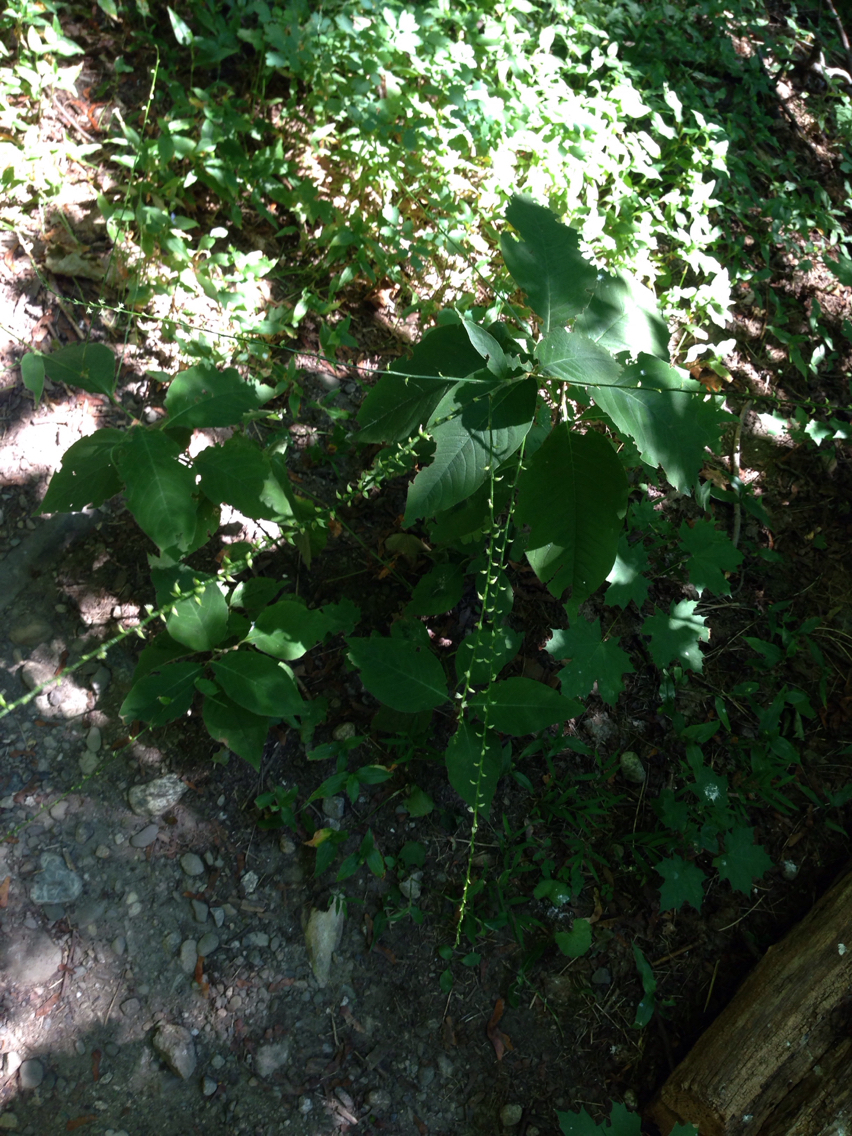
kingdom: Plantae
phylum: Tracheophyta
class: Magnoliopsida
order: Caryophyllales
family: Polygonaceae
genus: Persicaria
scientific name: Persicaria virginiana
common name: Jumpseed
